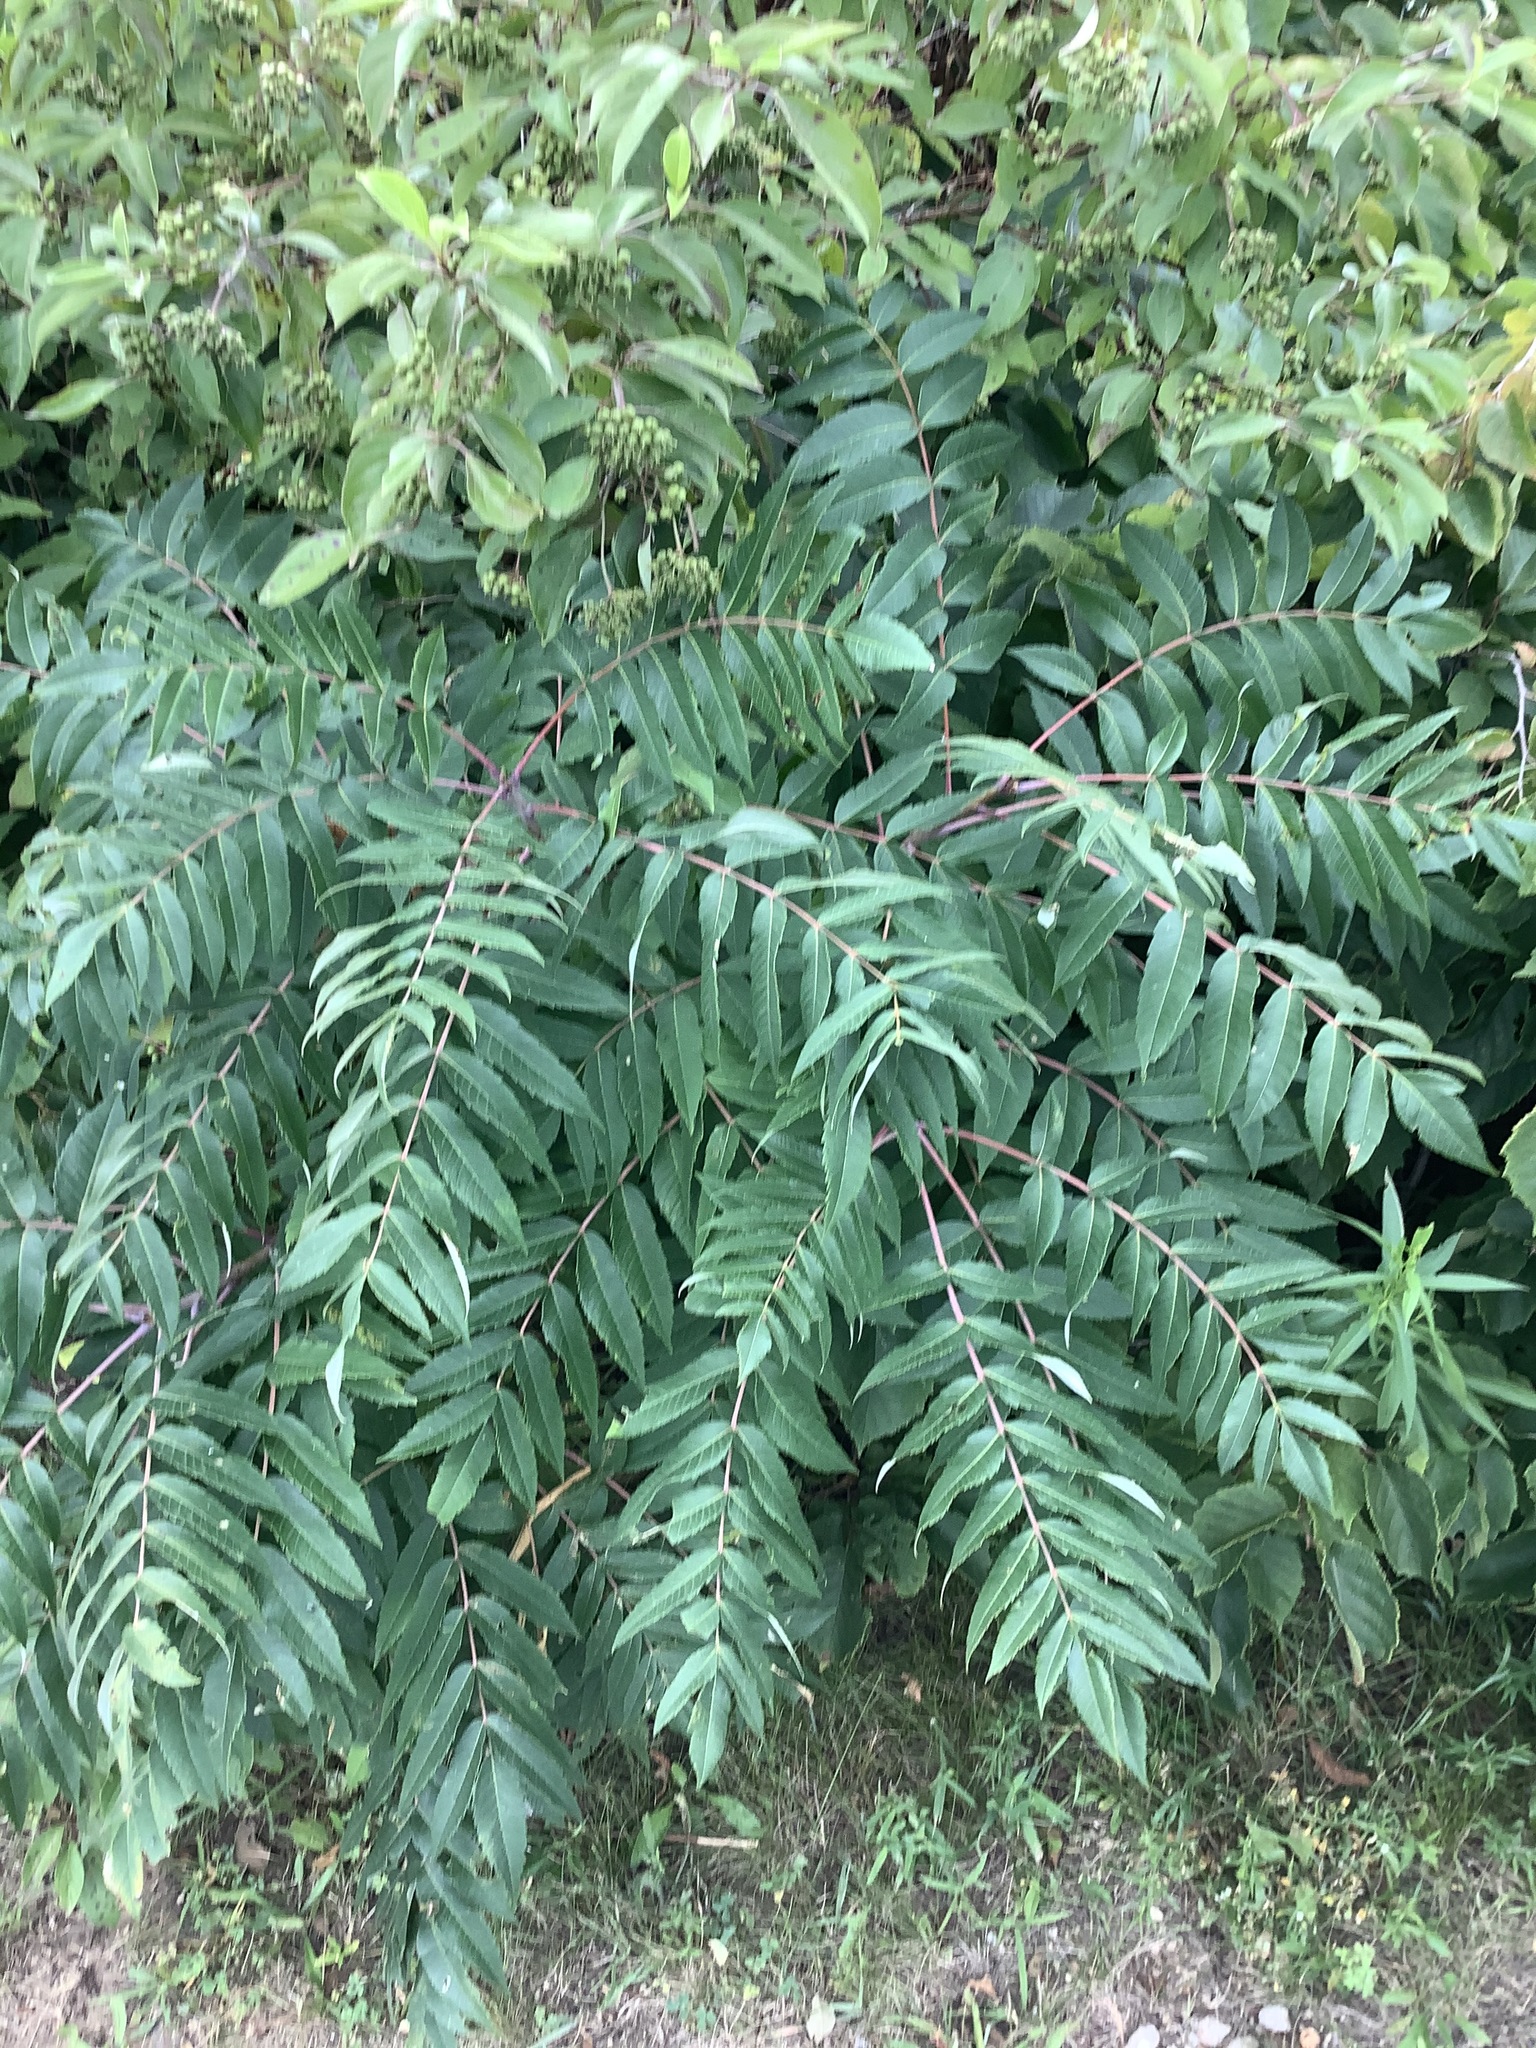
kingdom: Plantae
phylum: Tracheophyta
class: Magnoliopsida
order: Sapindales
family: Anacardiaceae
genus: Rhus
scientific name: Rhus glabra
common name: Scarlet sumac
